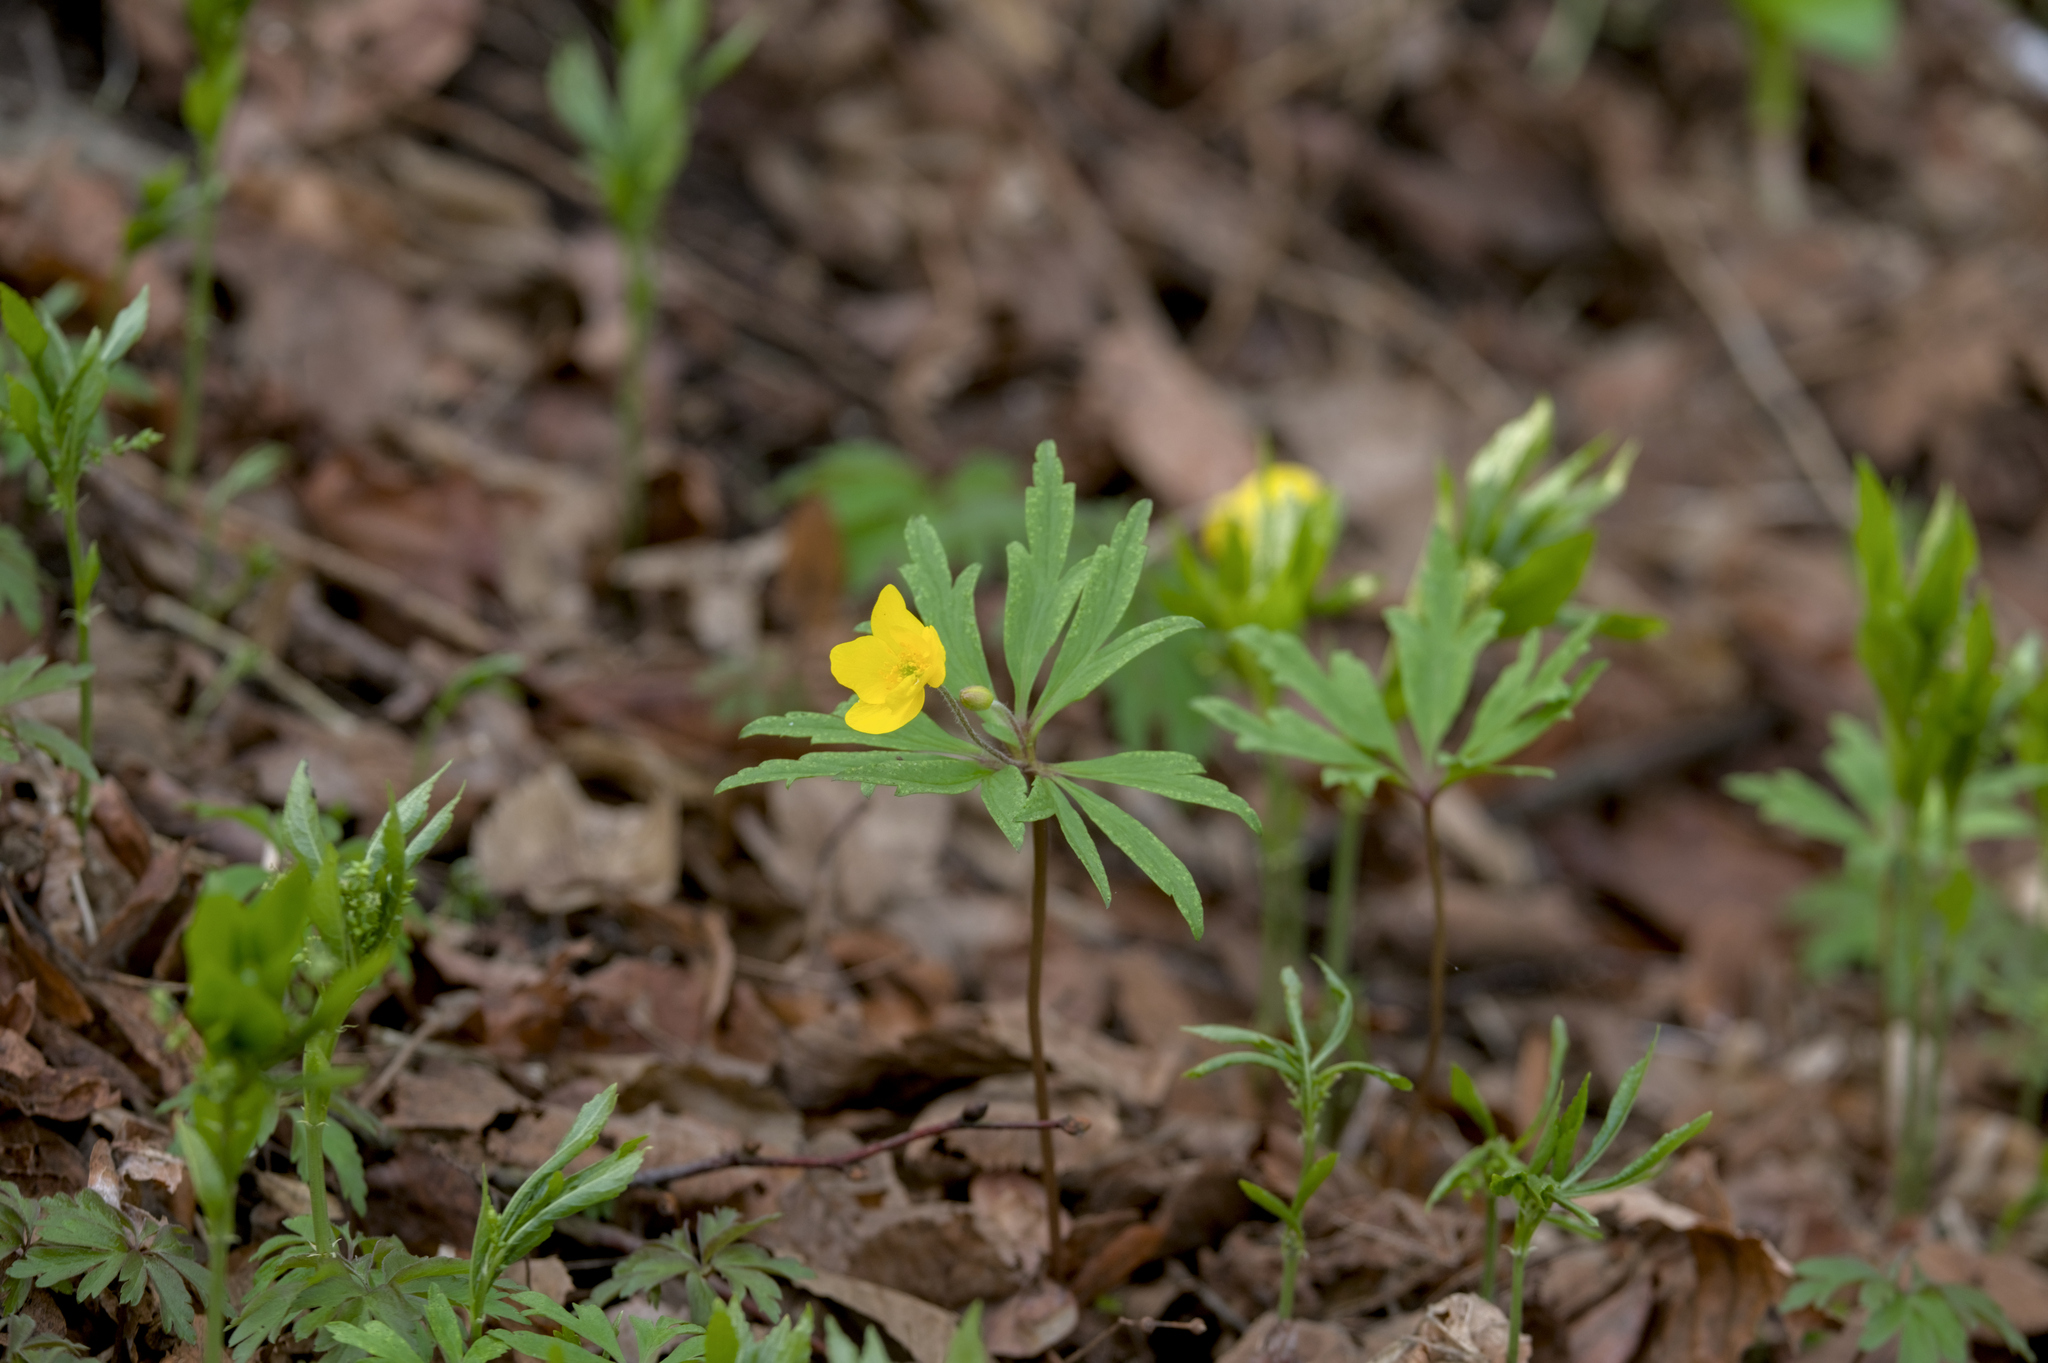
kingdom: Plantae
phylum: Tracheophyta
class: Magnoliopsida
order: Ranunculales
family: Ranunculaceae
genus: Anemone
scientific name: Anemone ranunculoides
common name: Yellow anemone
